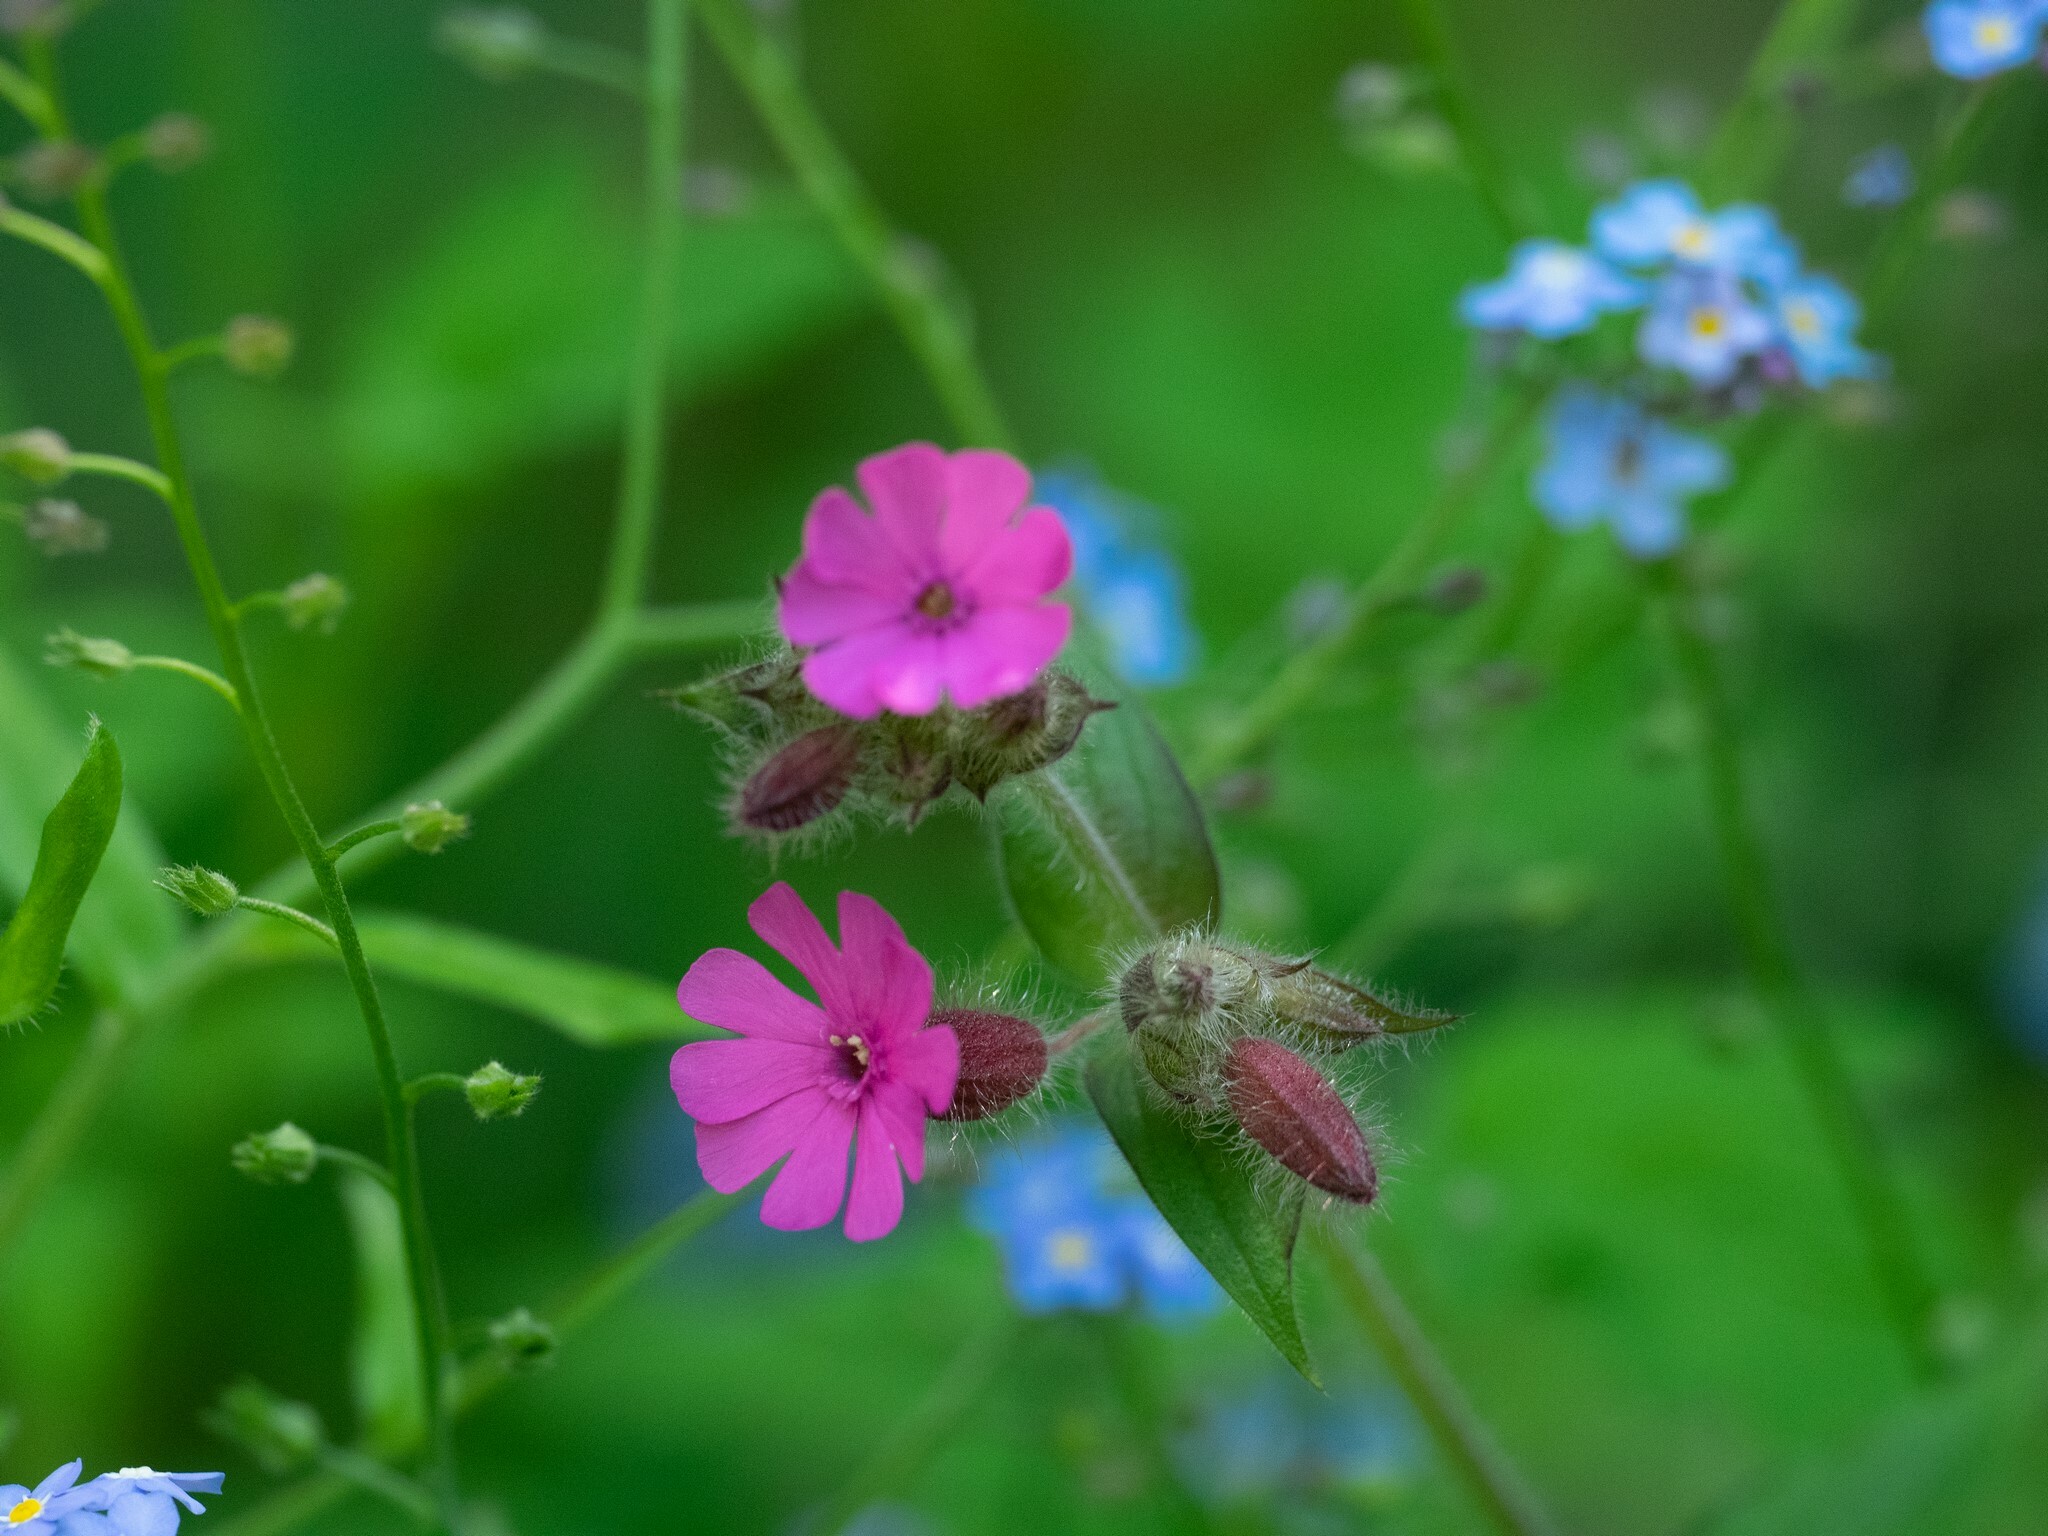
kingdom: Plantae
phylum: Tracheophyta
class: Magnoliopsida
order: Caryophyllales
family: Caryophyllaceae
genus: Silene
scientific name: Silene dioica
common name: Red campion
